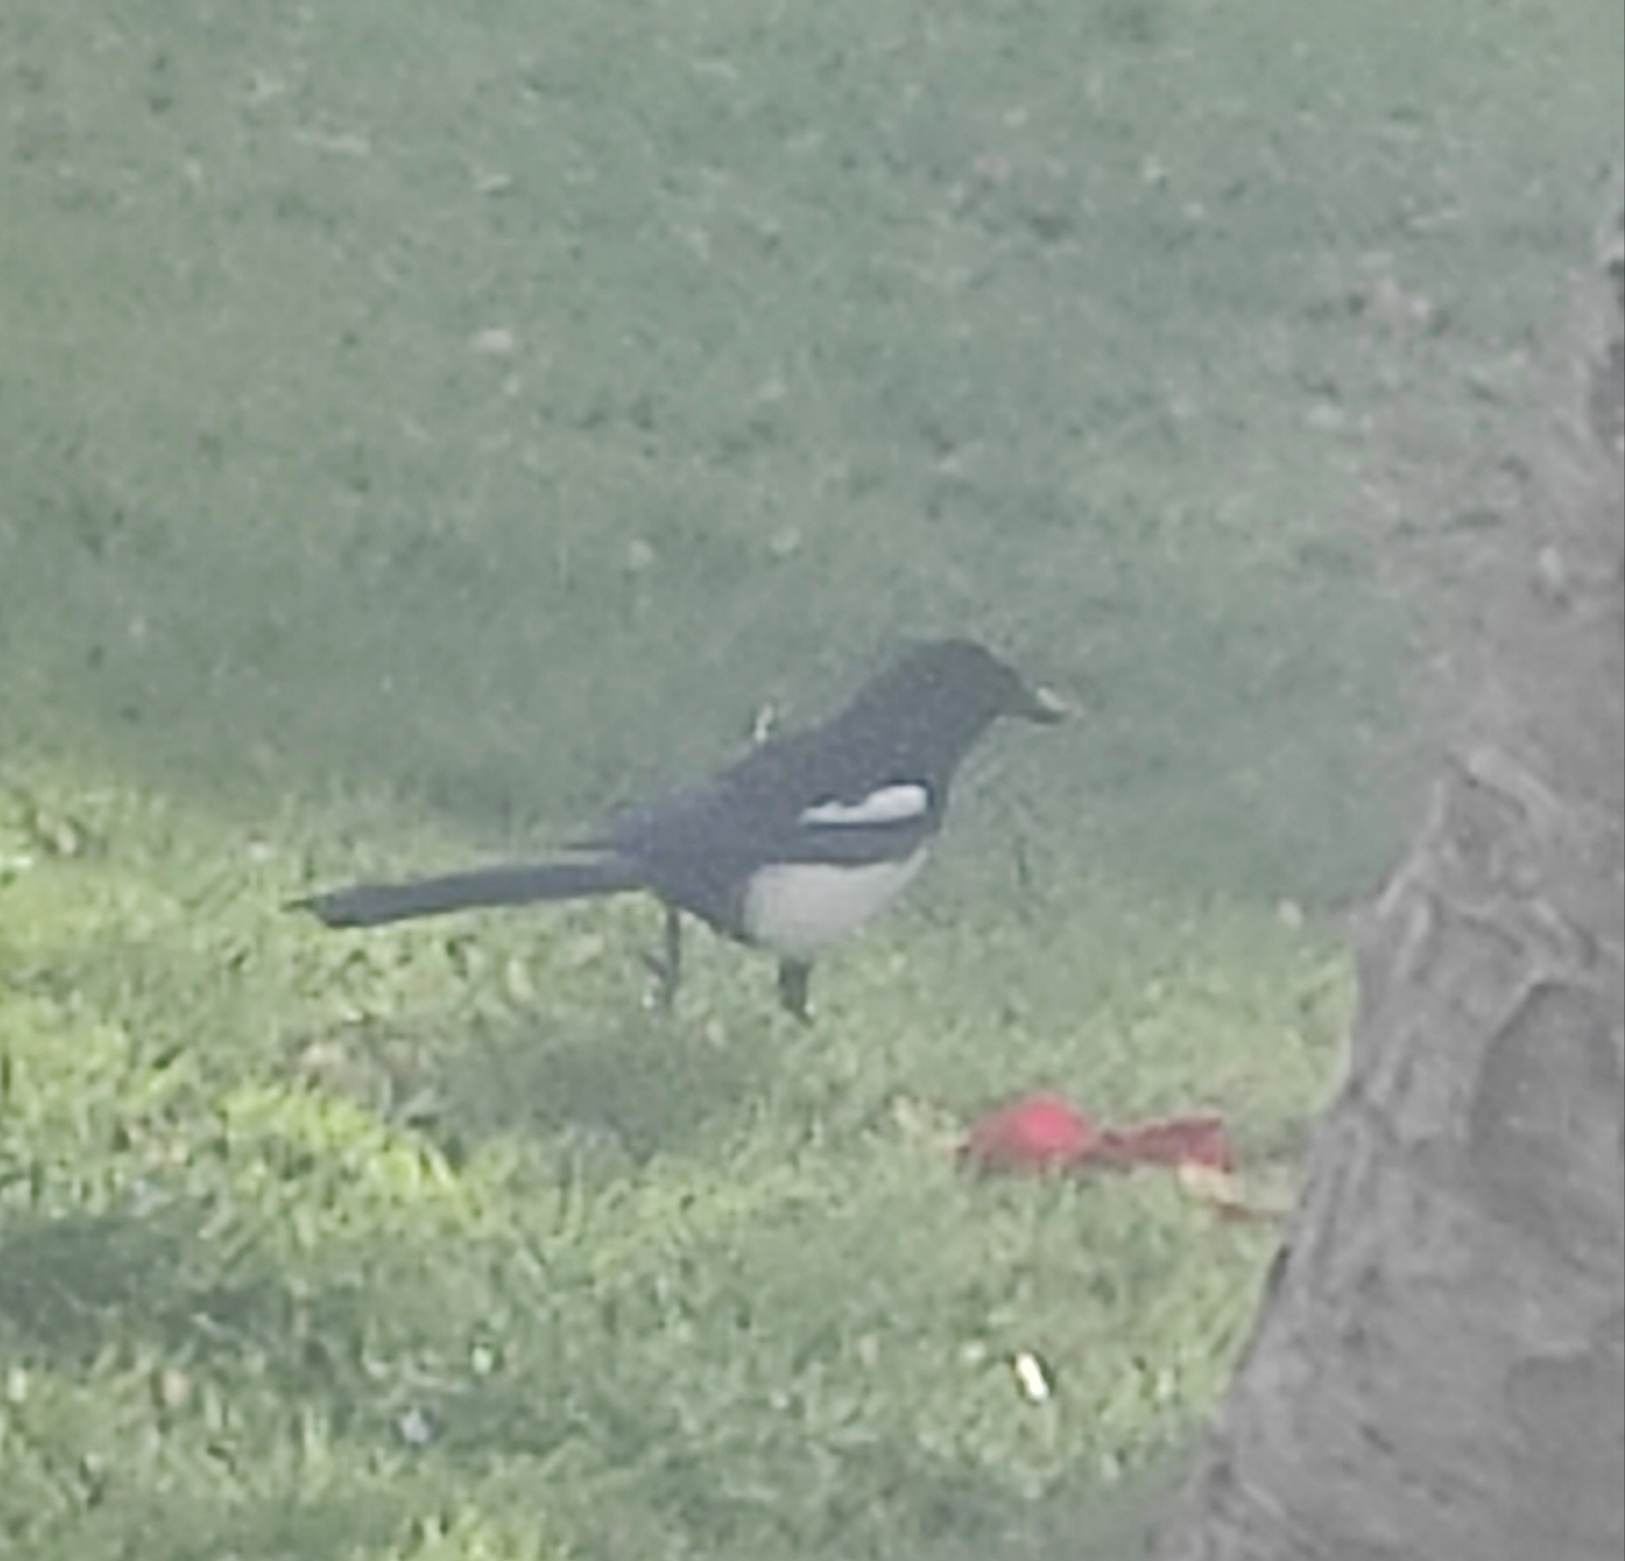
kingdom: Animalia
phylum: Chordata
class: Aves
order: Passeriformes
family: Corvidae
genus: Pica
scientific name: Pica pica
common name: Eurasian magpie
